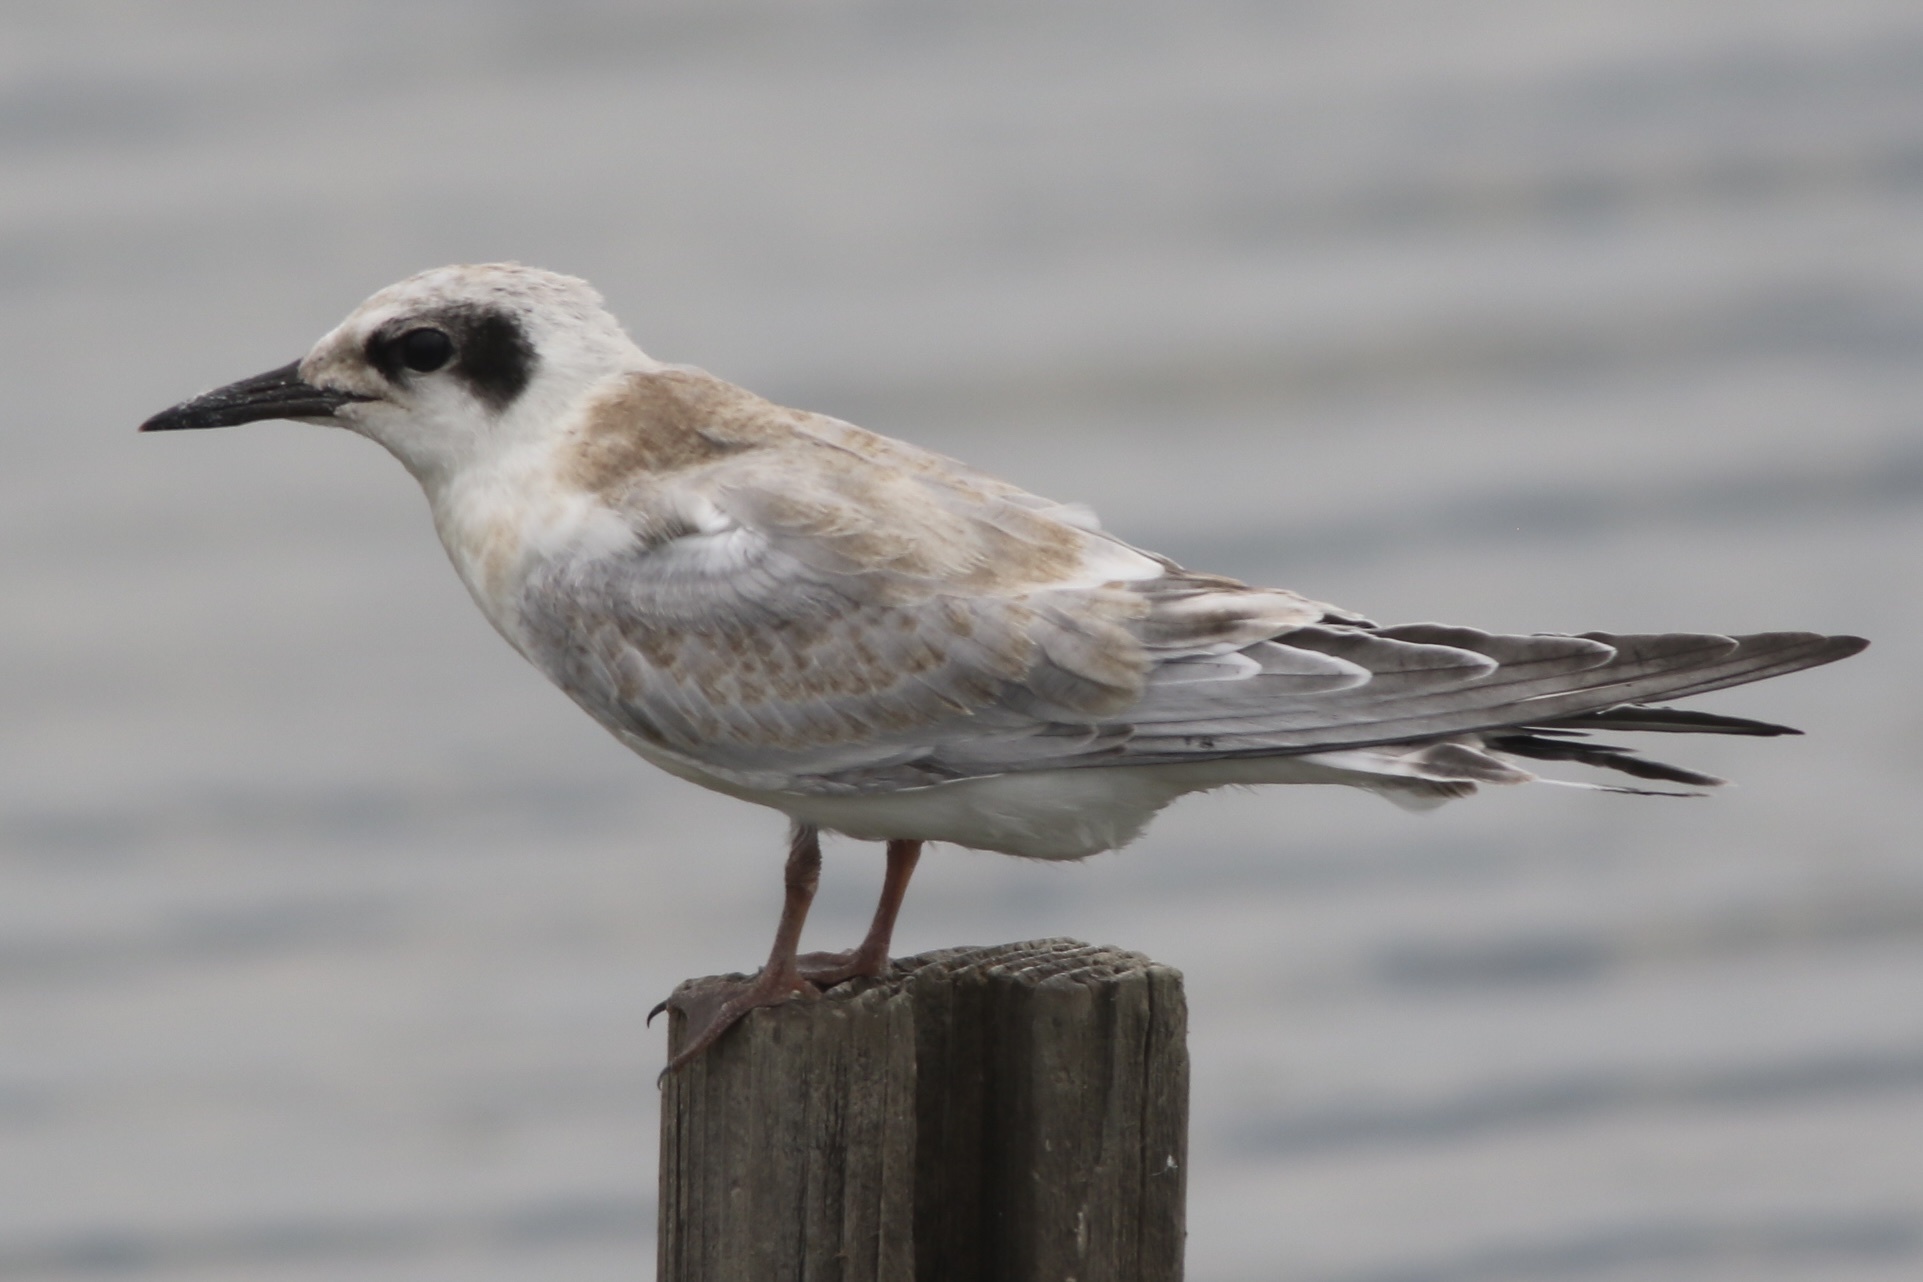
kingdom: Animalia
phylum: Chordata
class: Aves
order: Charadriiformes
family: Laridae
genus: Sterna
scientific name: Sterna forsteri
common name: Forster's tern
